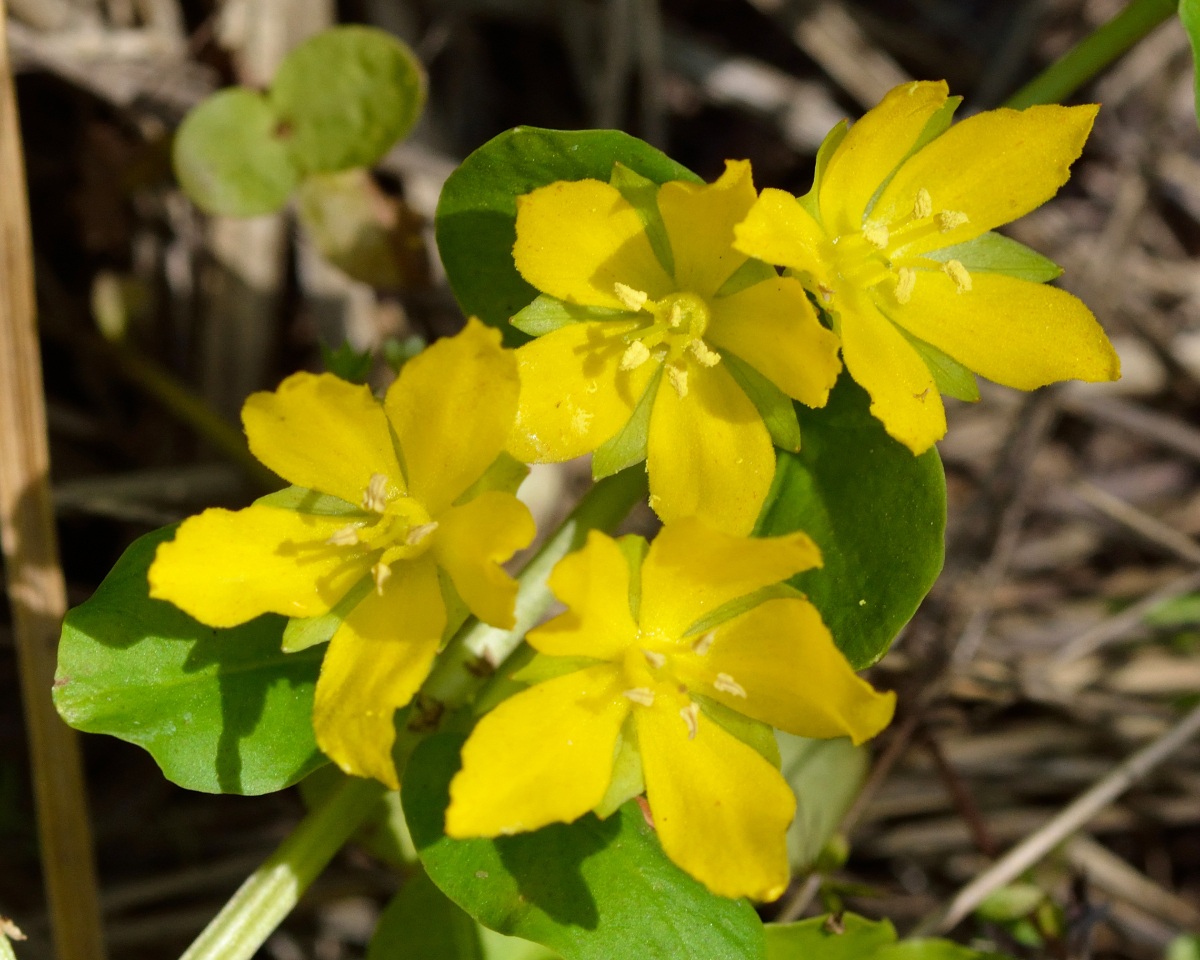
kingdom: Plantae
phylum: Tracheophyta
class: Magnoliopsida
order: Ericales
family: Primulaceae
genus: Lysimachia
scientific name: Lysimachia nummularia
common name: Moneywort
